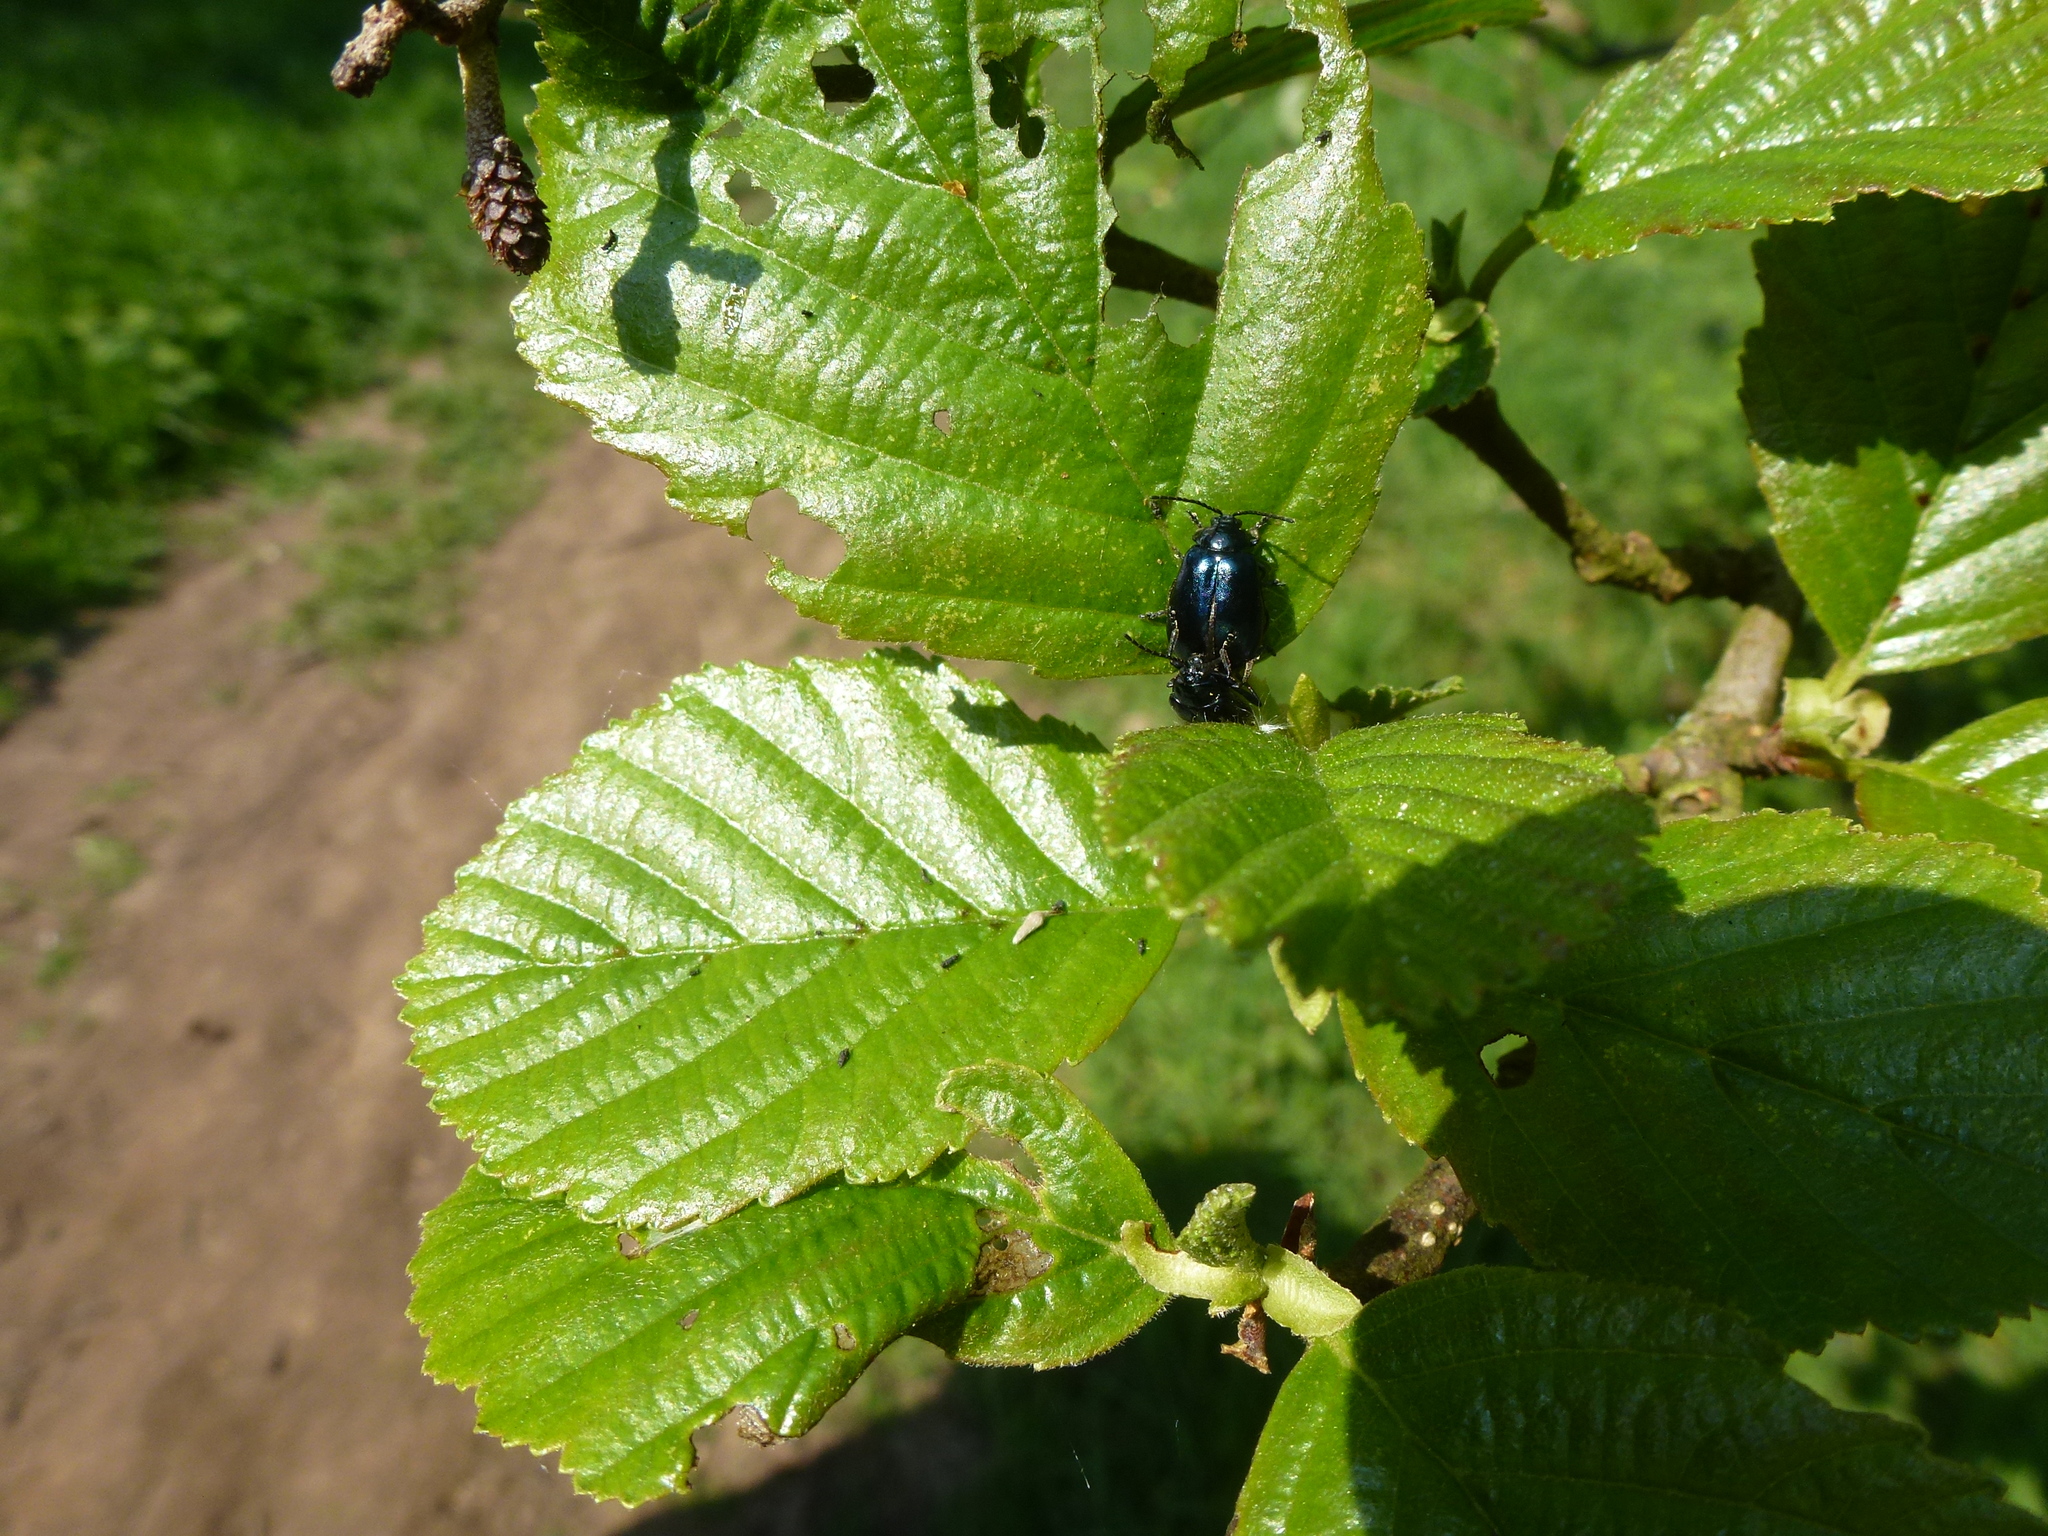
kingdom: Animalia
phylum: Arthropoda
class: Insecta
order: Coleoptera
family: Chrysomelidae
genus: Agelastica
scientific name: Agelastica alni
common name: Alder leaf beetle
